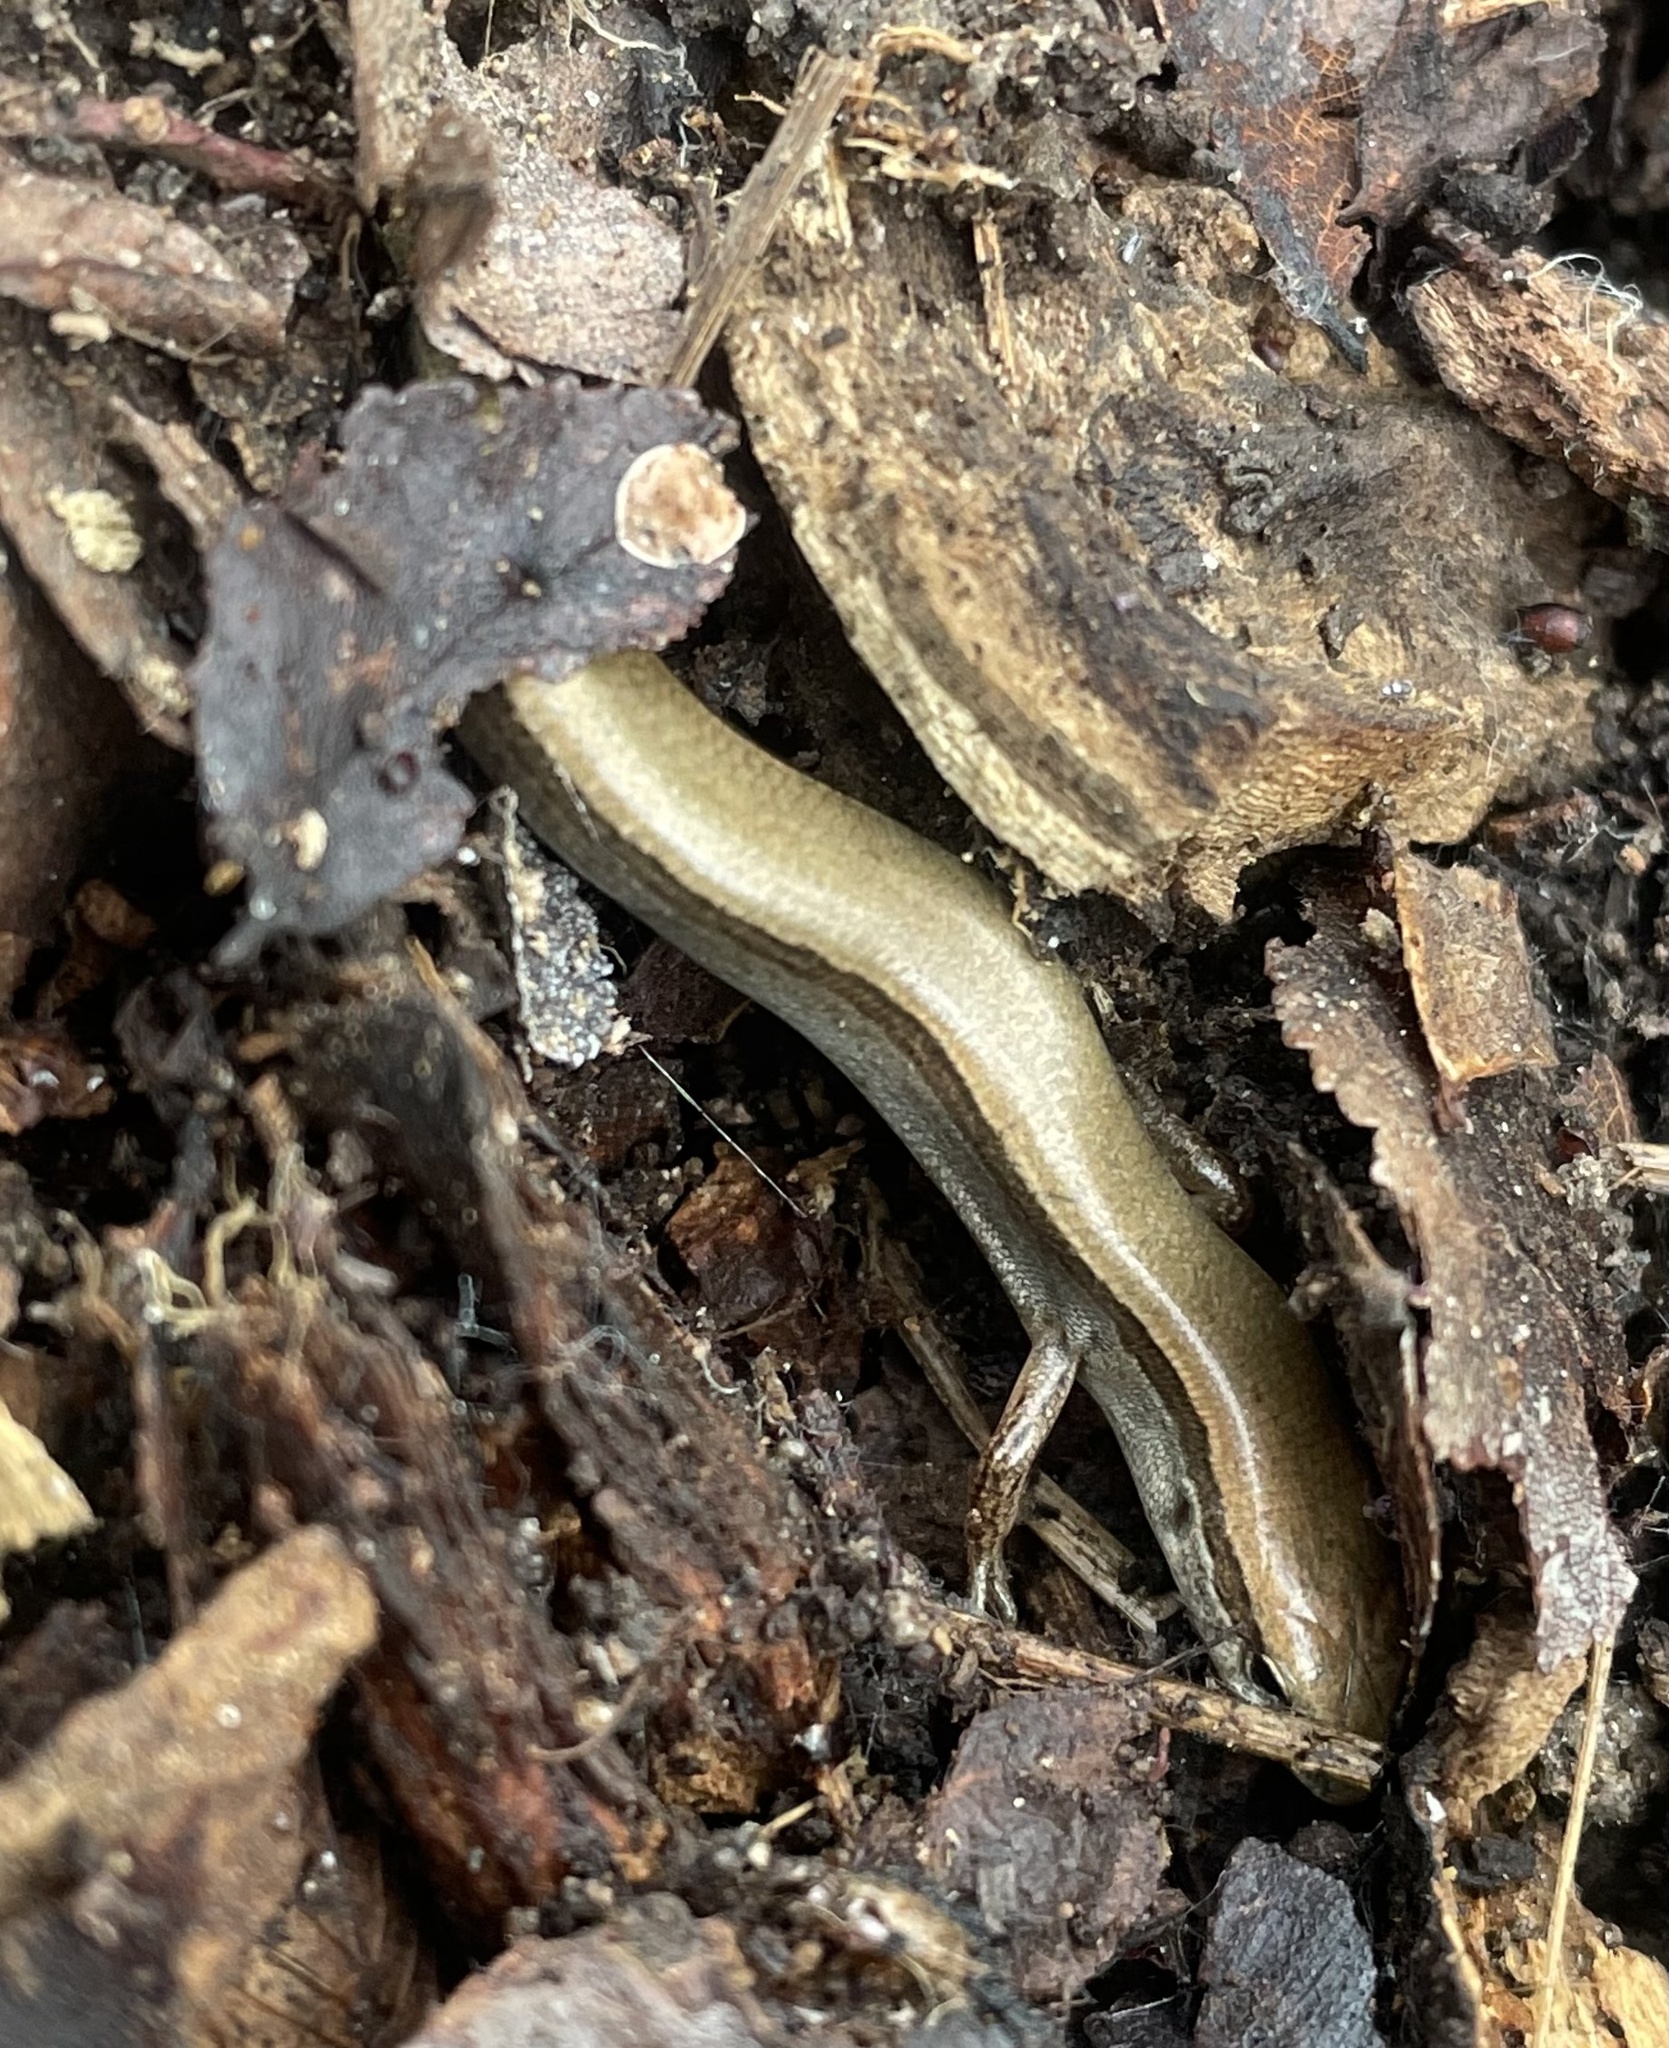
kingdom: Animalia
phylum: Chordata
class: Squamata
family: Scincidae
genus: Scincella
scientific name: Scincella lateralis
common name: Ground skink
